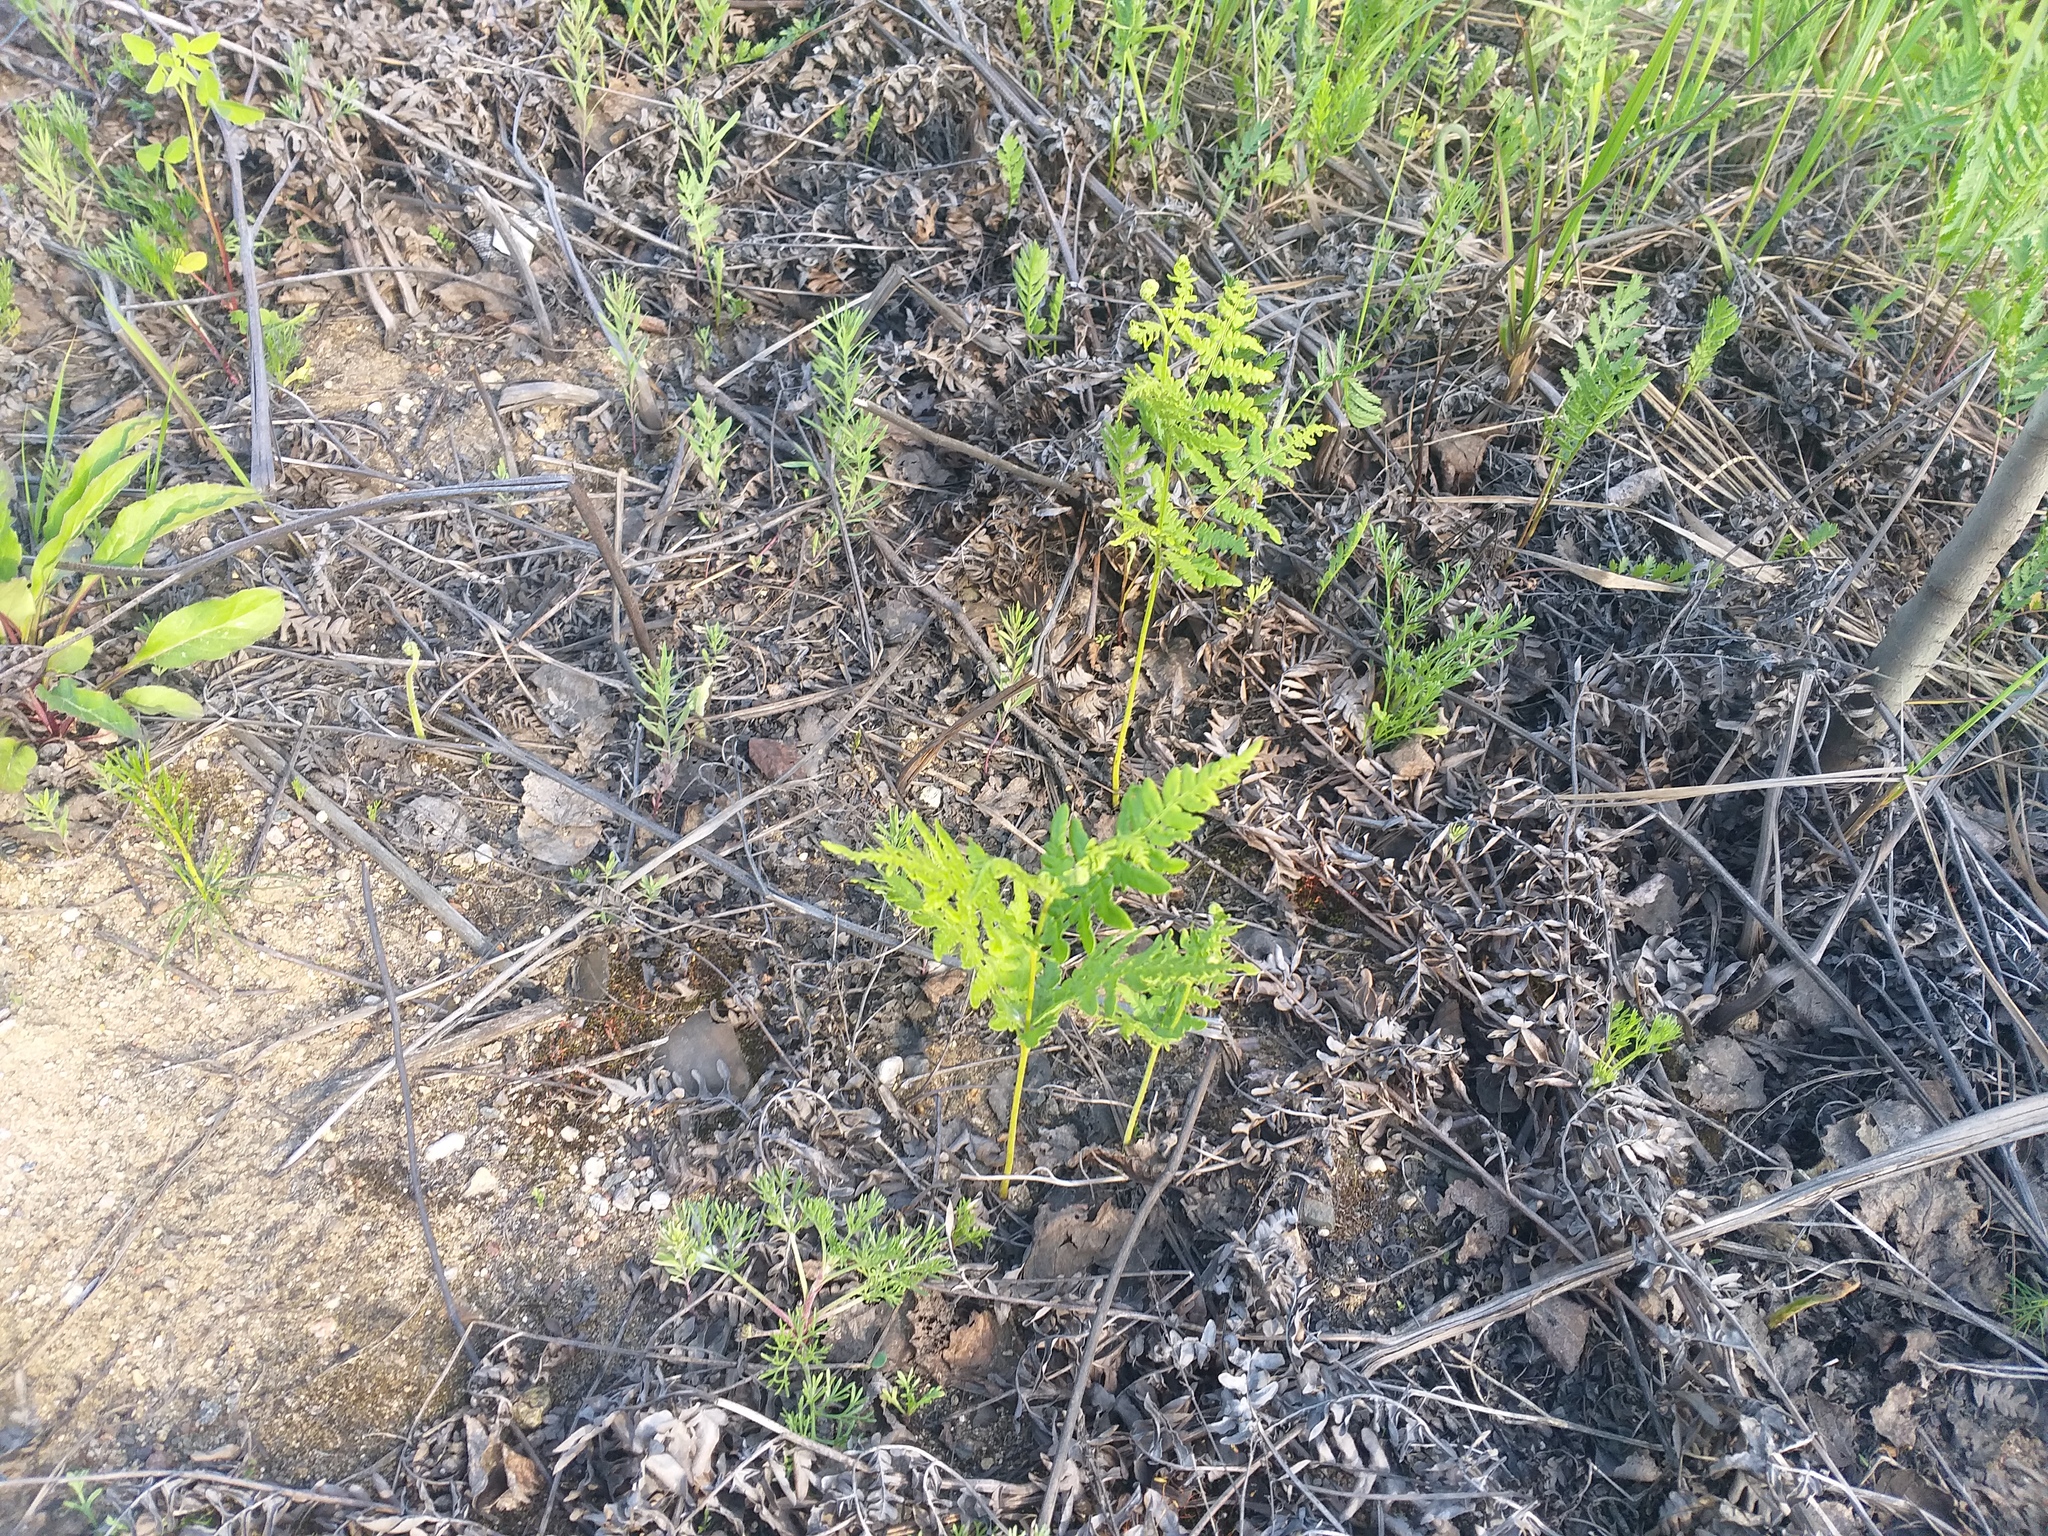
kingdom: Plantae
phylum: Tracheophyta
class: Polypodiopsida
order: Polypodiales
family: Dennstaedtiaceae
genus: Pteridium
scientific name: Pteridium aquilinum
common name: Bracken
